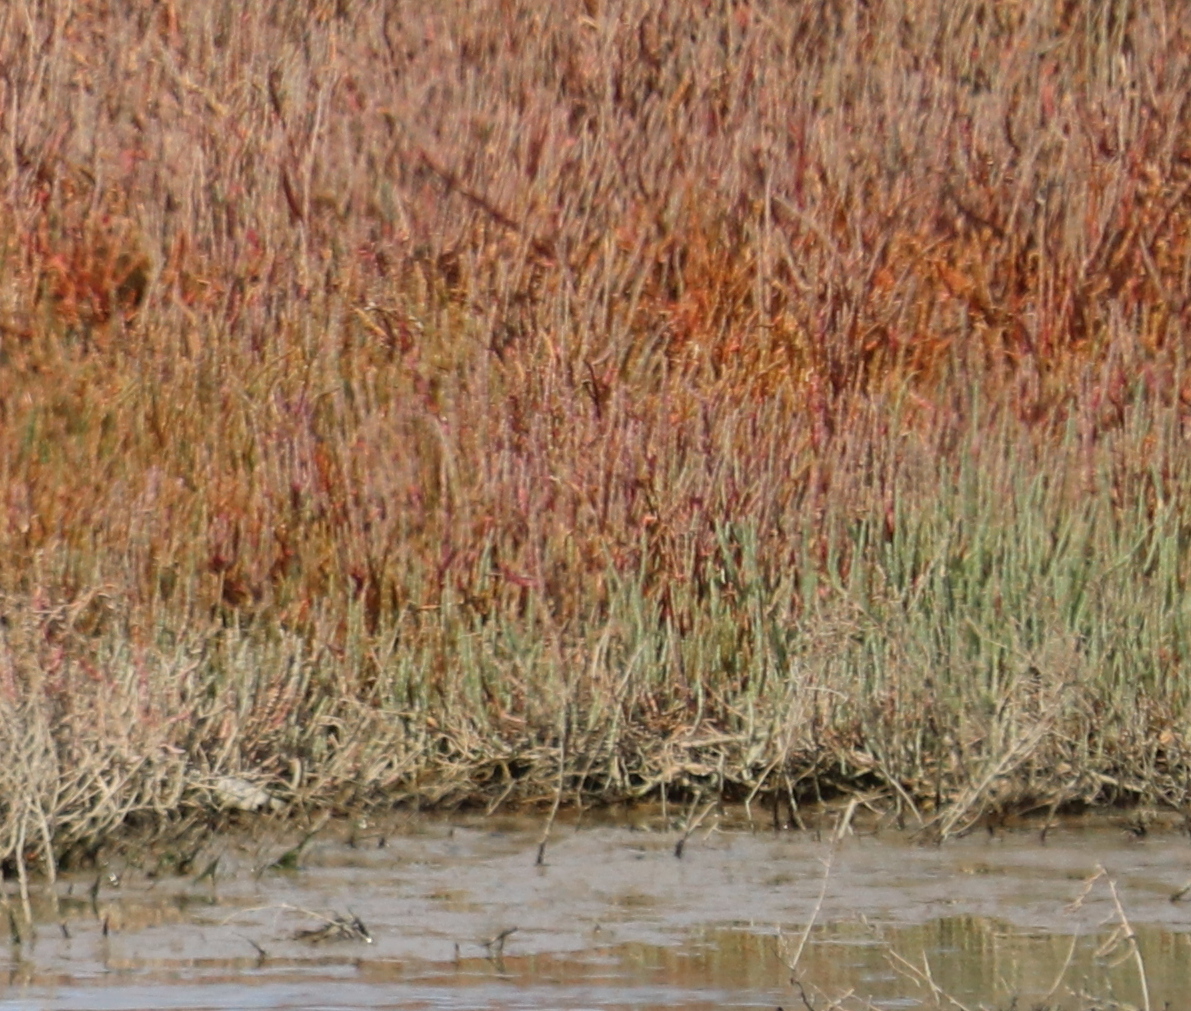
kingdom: Plantae
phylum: Tracheophyta
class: Magnoliopsida
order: Caryophyllales
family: Amaranthaceae
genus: Salicornia
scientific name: Salicornia decumbens
